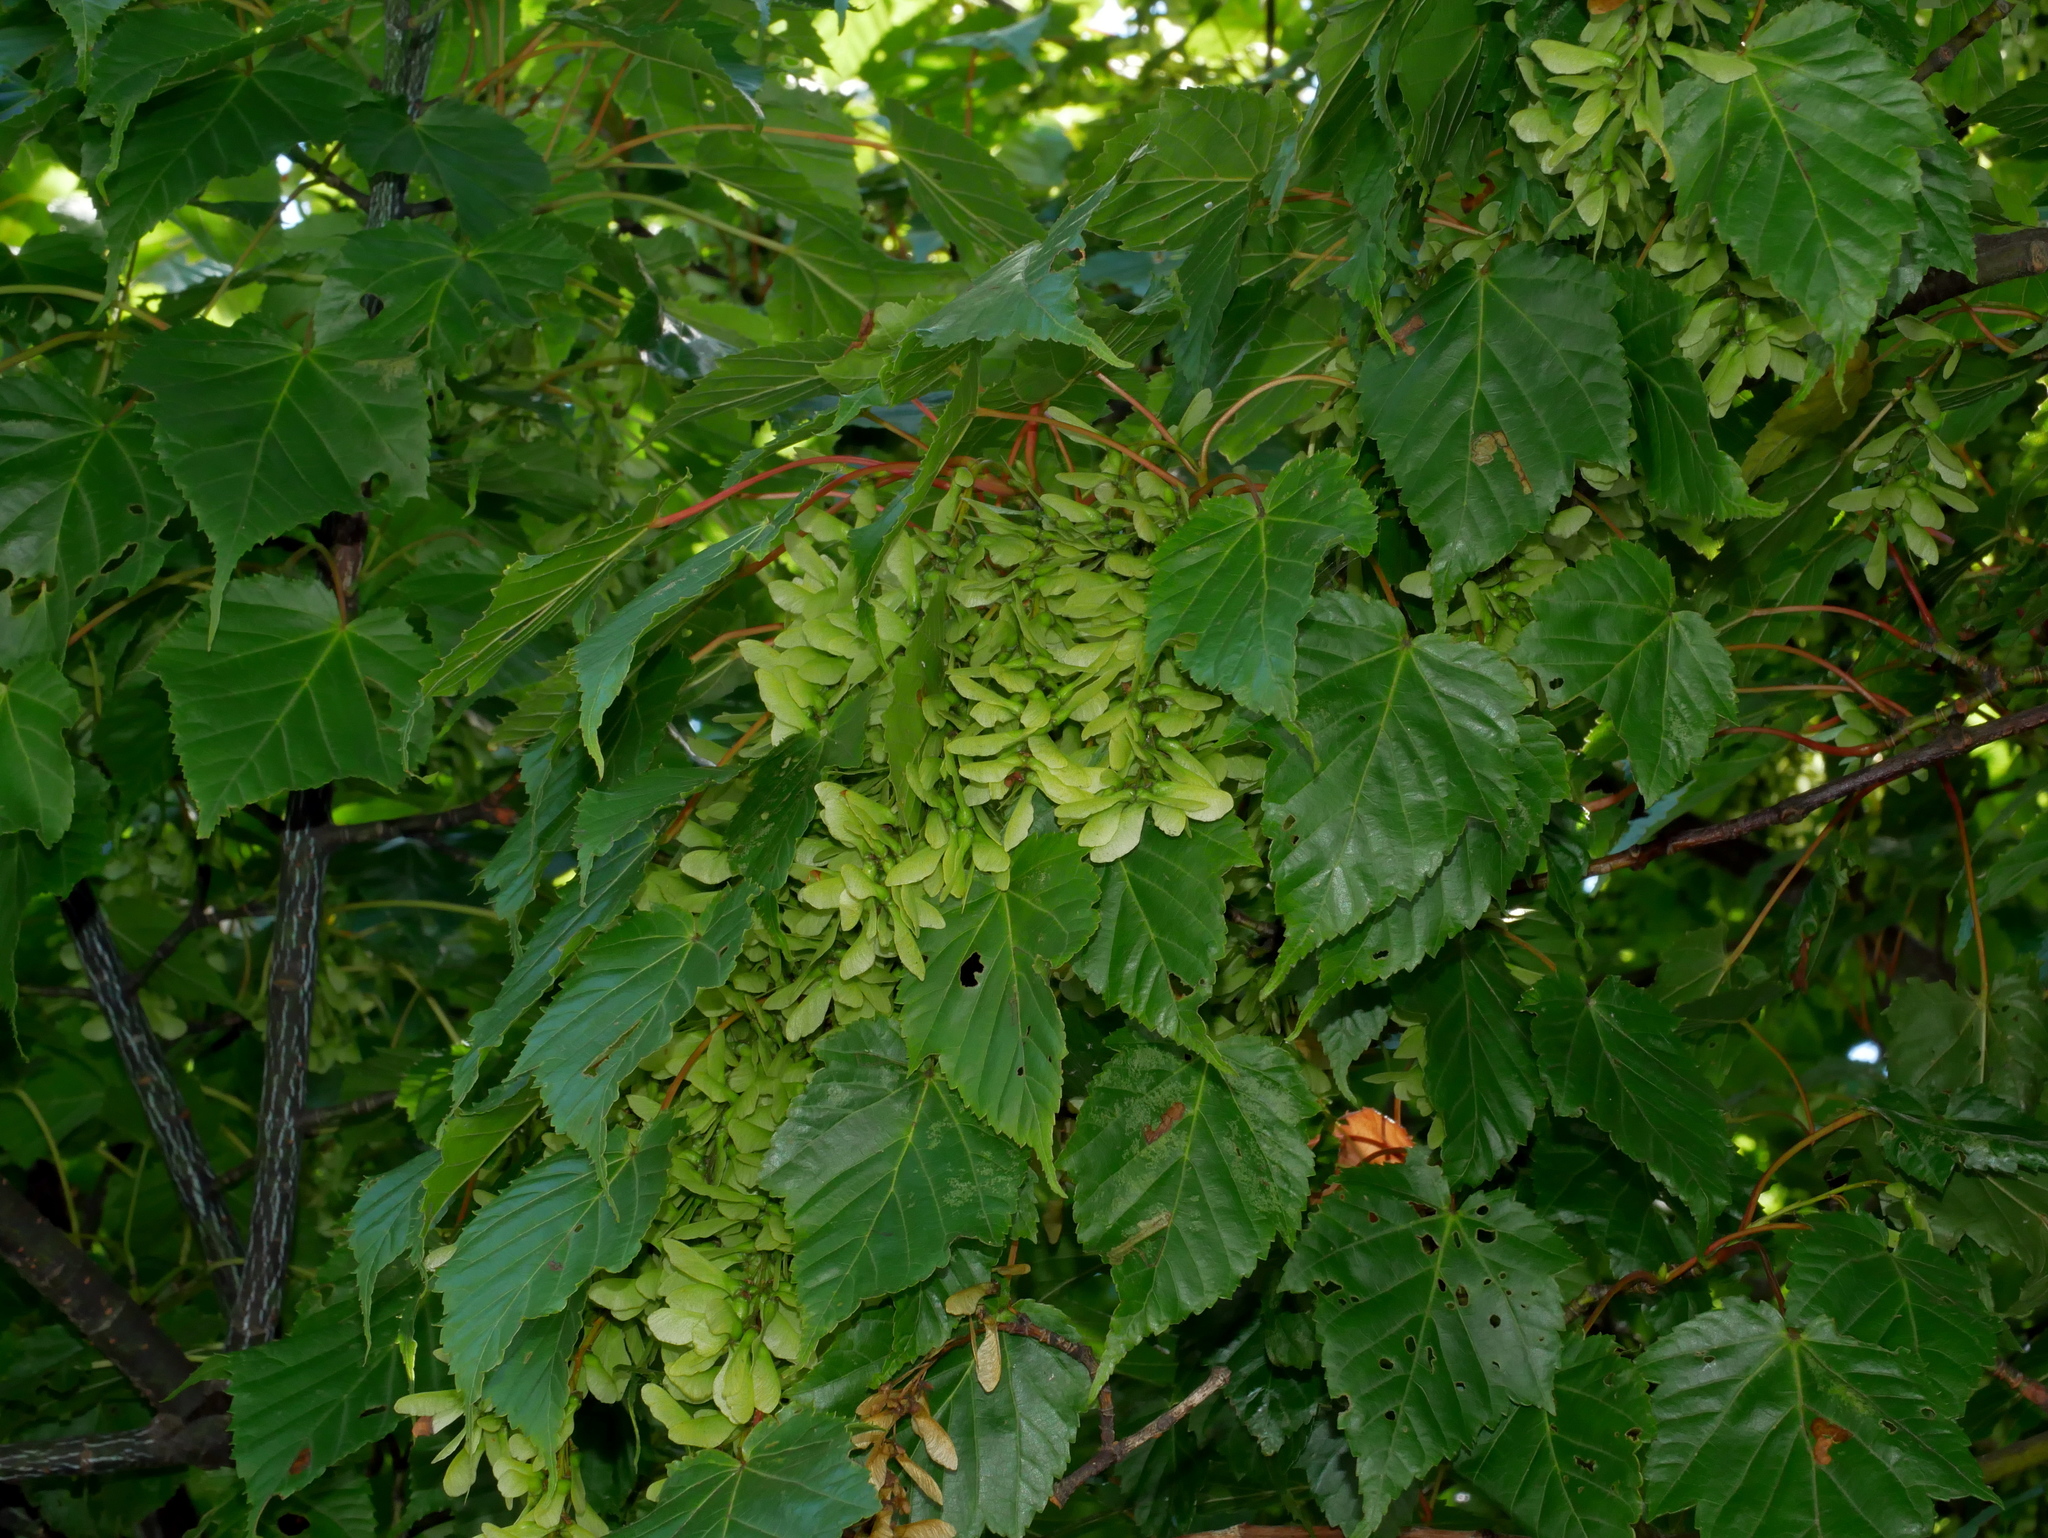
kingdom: Plantae
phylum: Tracheophyta
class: Magnoliopsida
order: Sapindales
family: Sapindaceae
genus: Acer
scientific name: Acer caudatifolium
